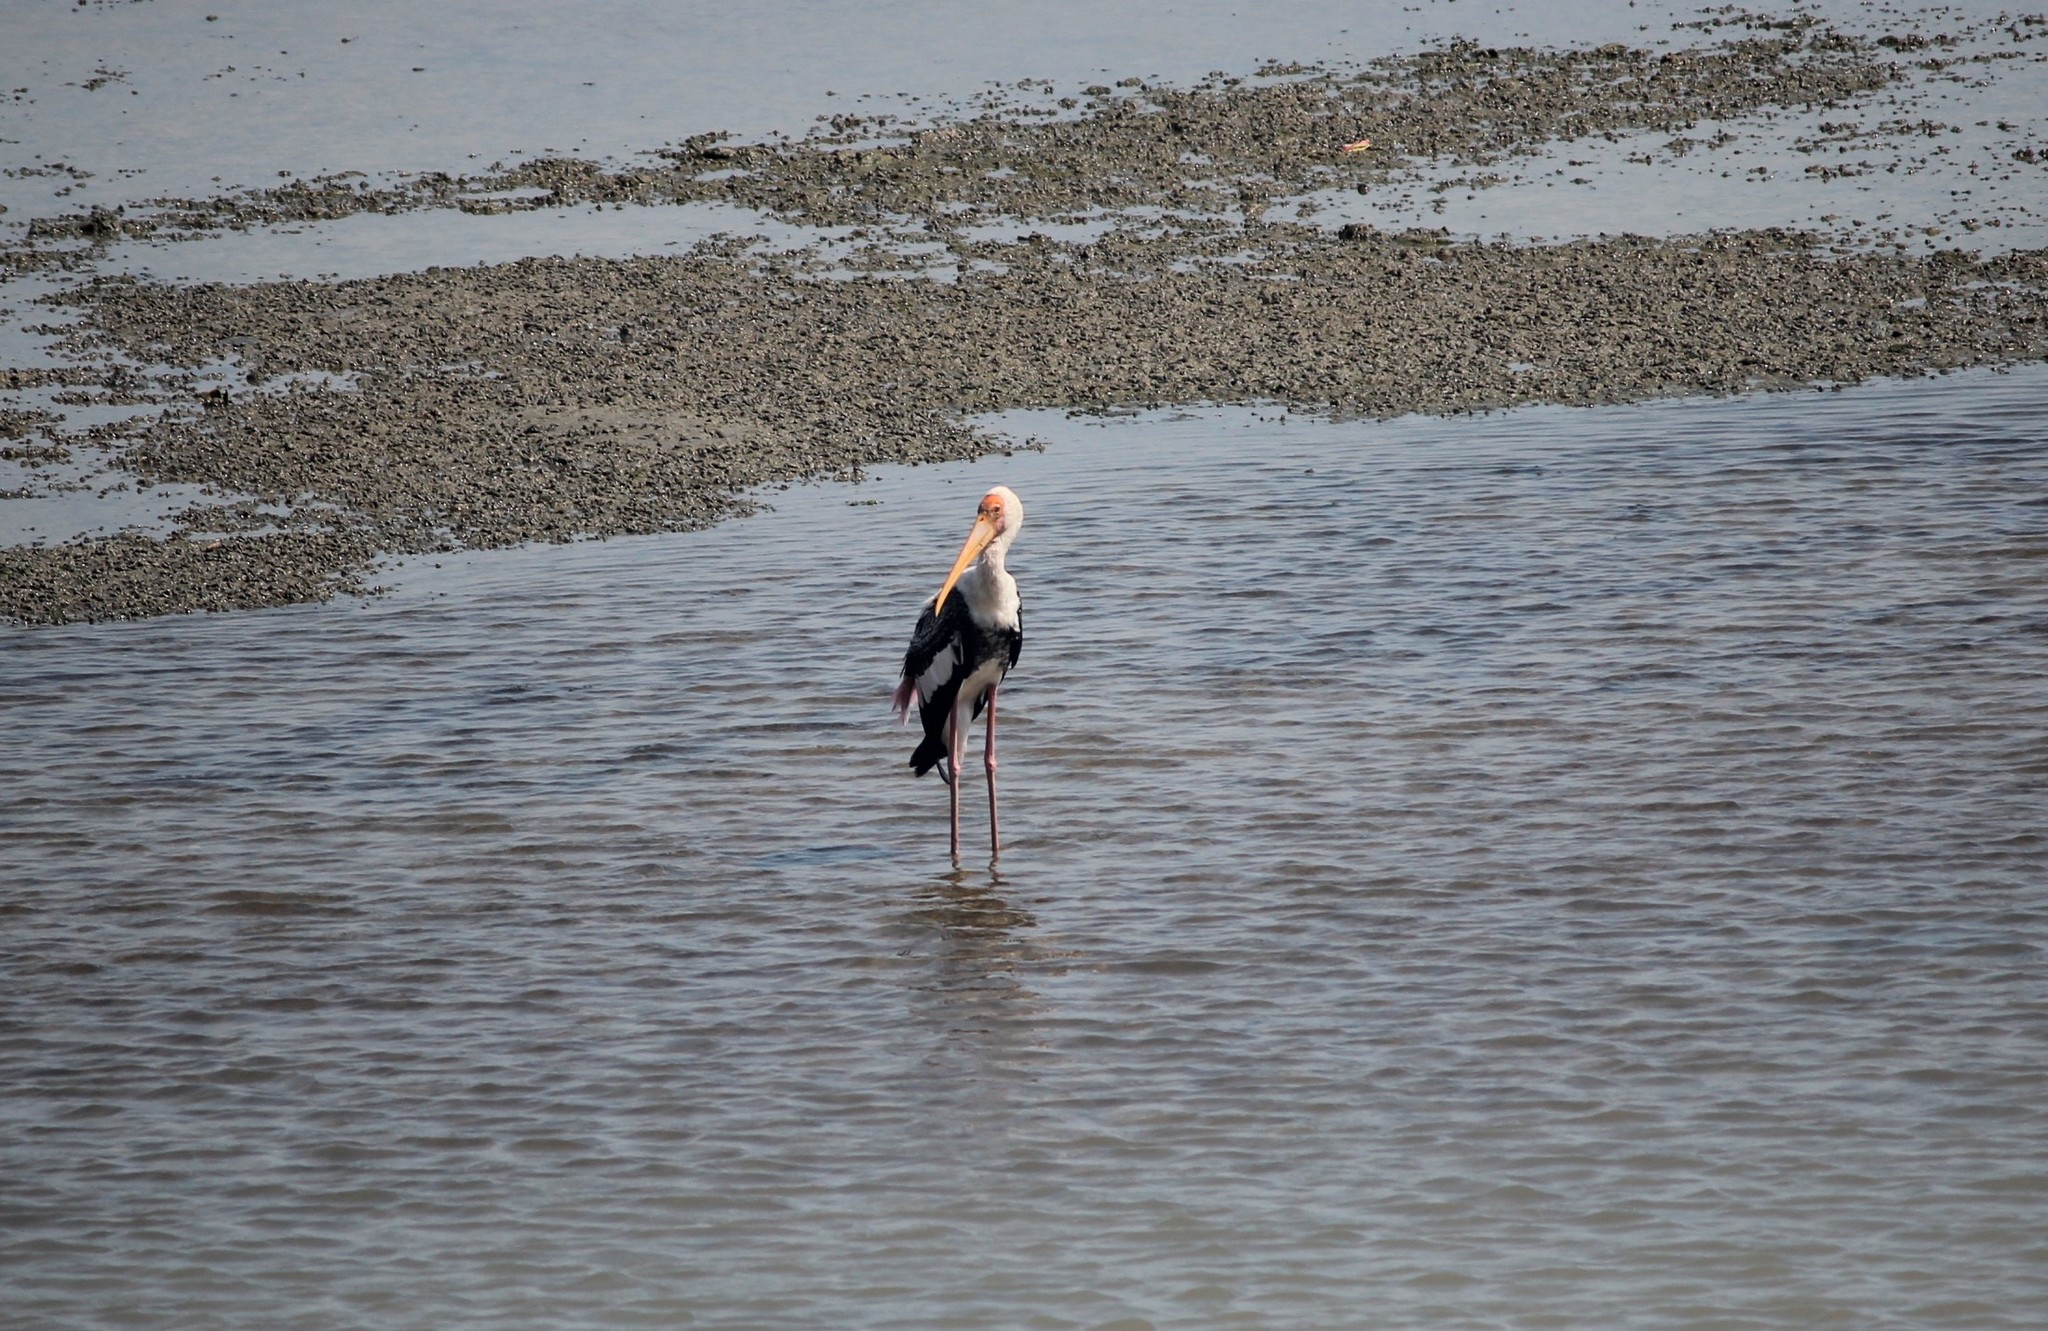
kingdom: Animalia
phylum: Chordata
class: Aves
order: Ciconiiformes
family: Ciconiidae
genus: Mycteria
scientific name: Mycteria leucocephala
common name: Painted stork
